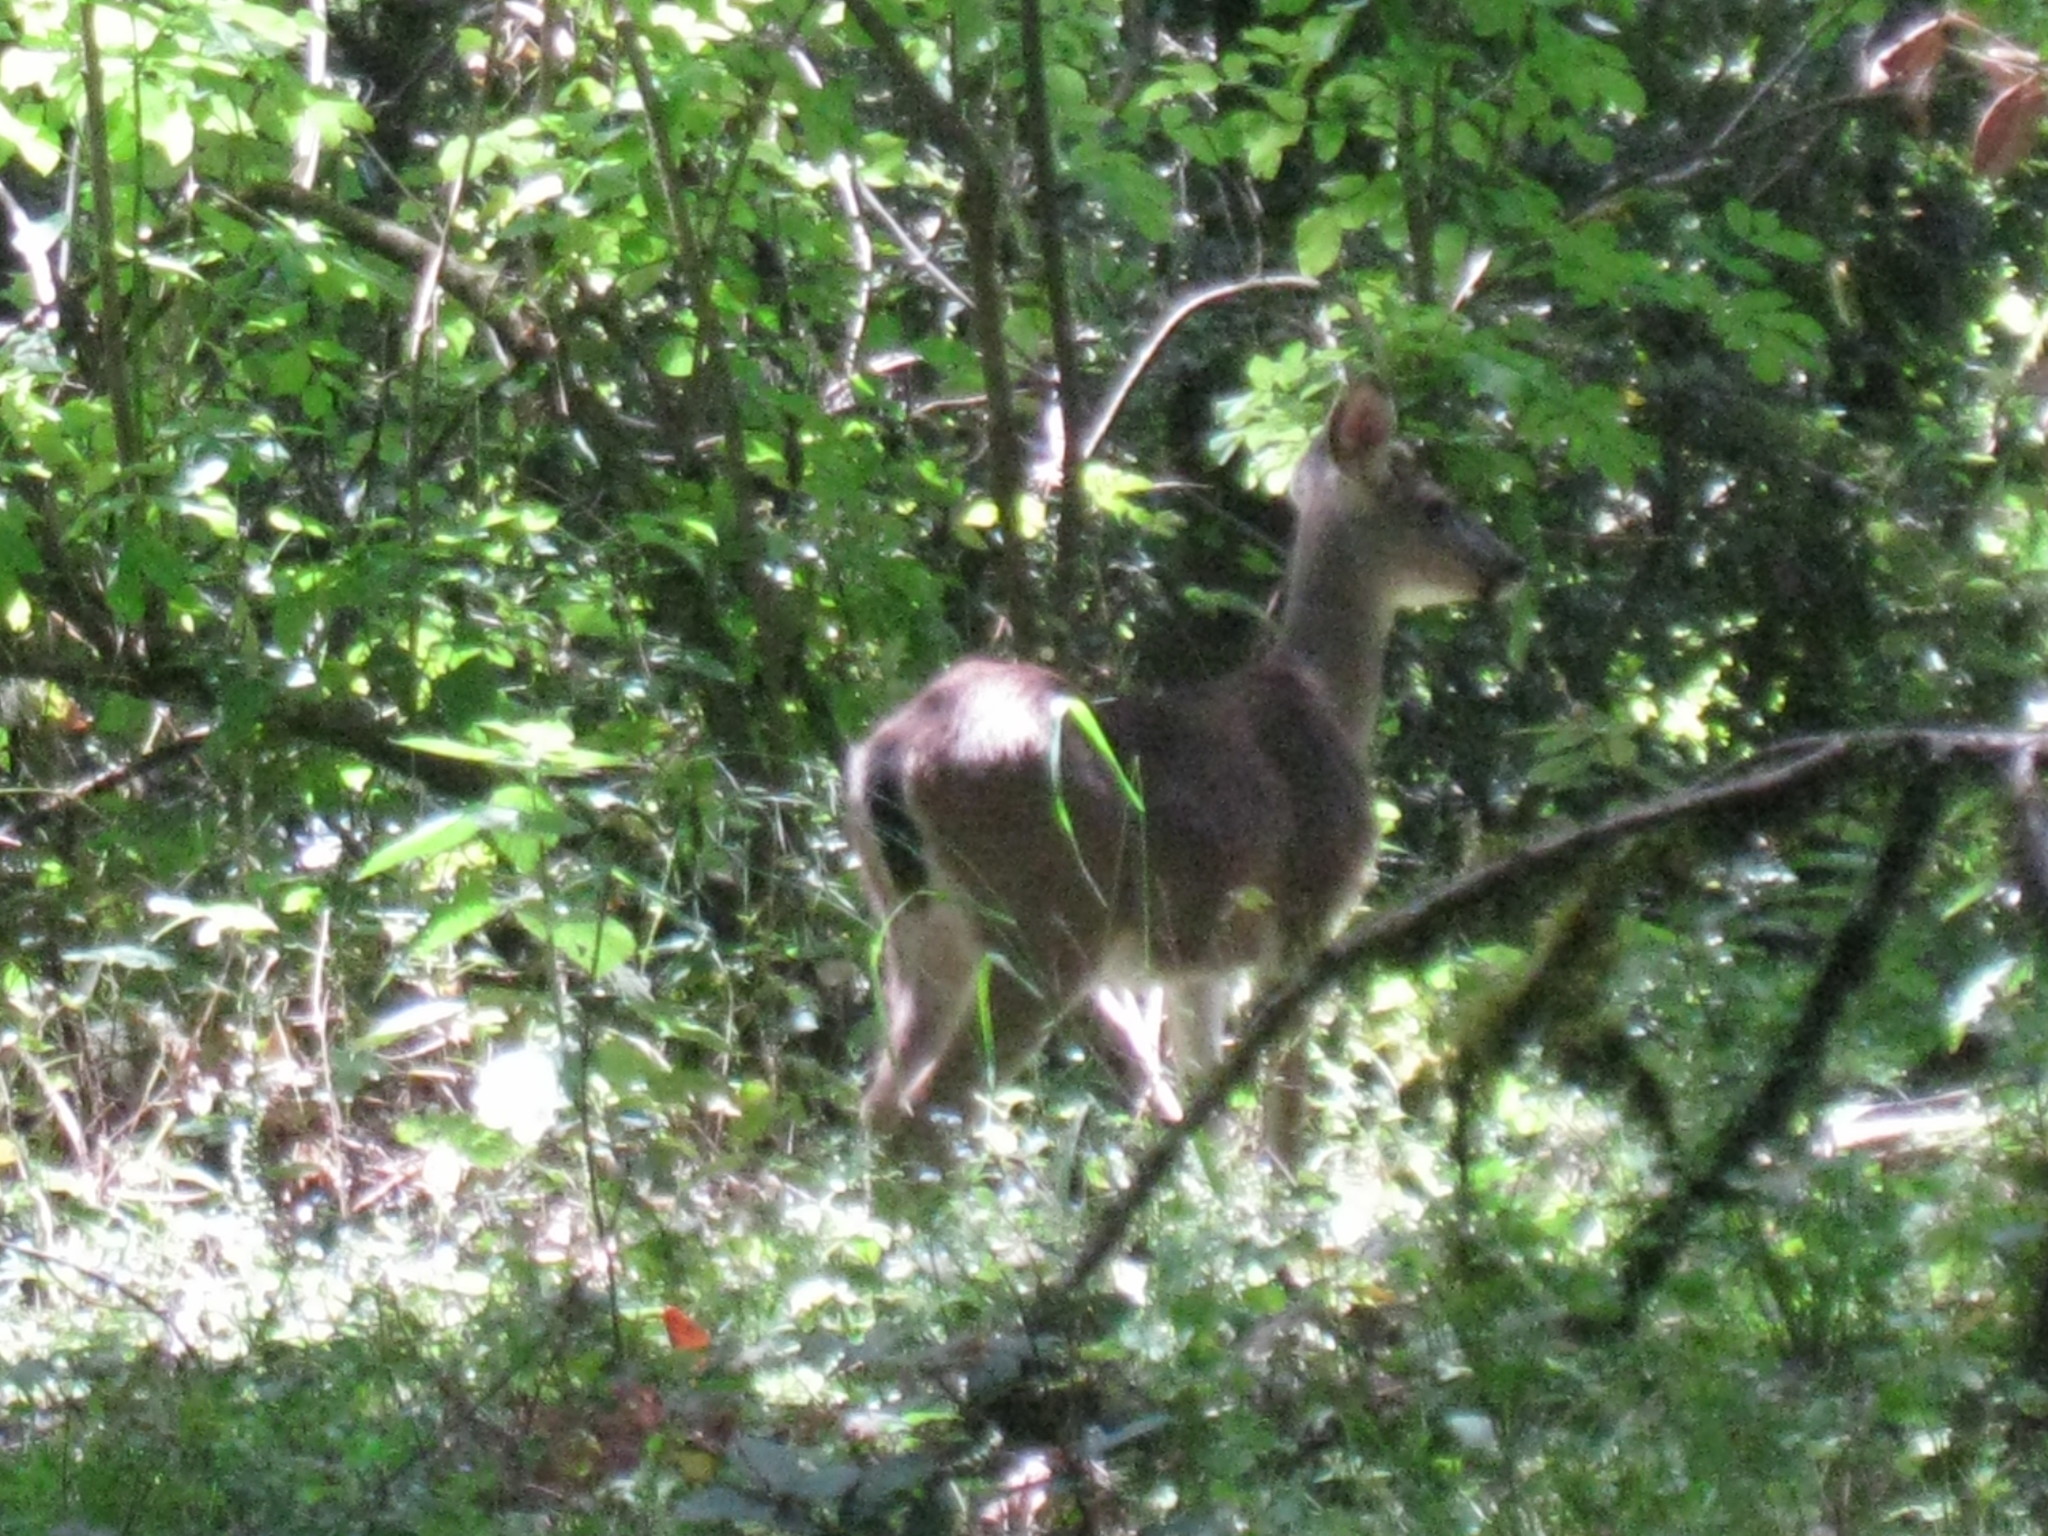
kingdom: Animalia
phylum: Chordata
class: Mammalia
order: Artiodactyla
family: Cervidae
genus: Odocoileus
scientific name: Odocoileus hemionus
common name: Mule deer
